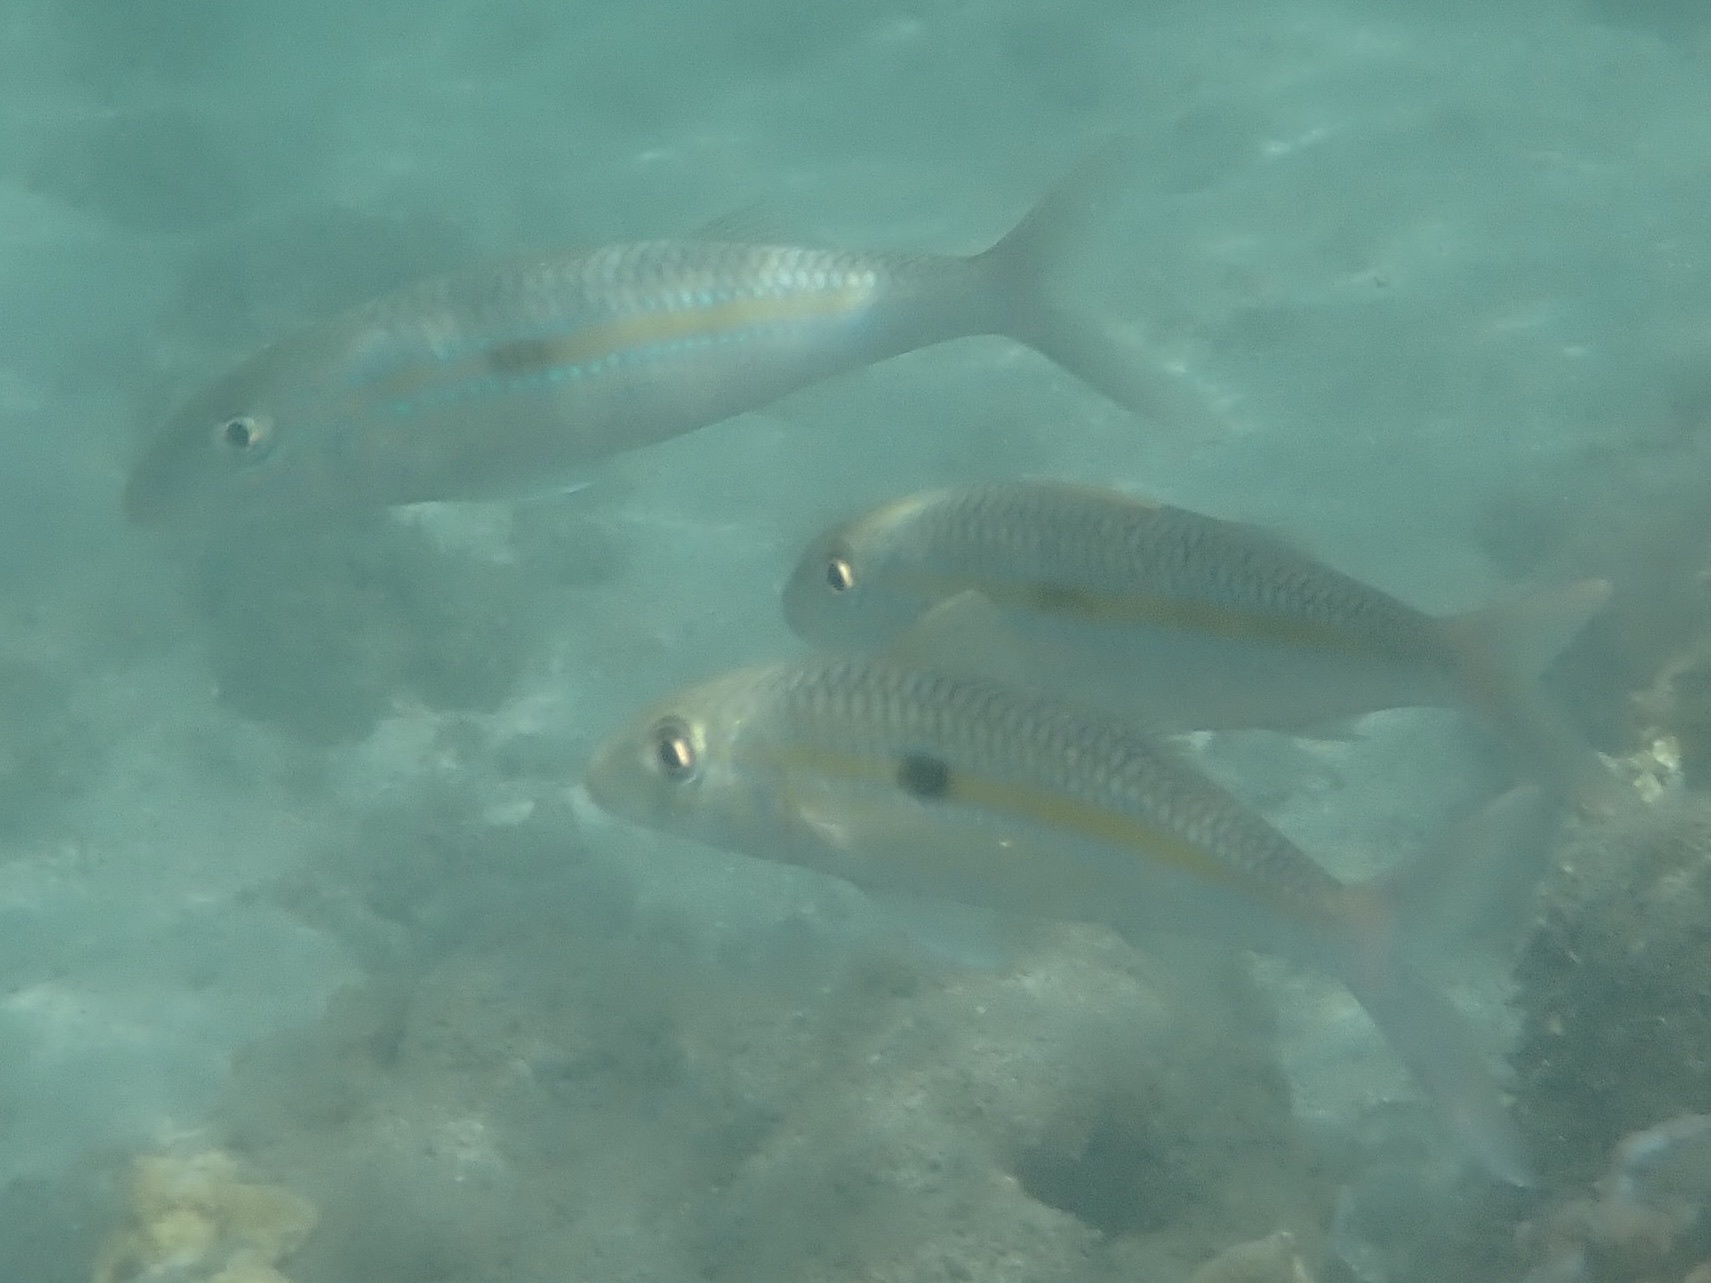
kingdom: Animalia
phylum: Chordata
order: Perciformes
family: Mullidae
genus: Mulloidichthys
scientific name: Mulloidichthys flavolineatus
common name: Yellowstripe goatfish
